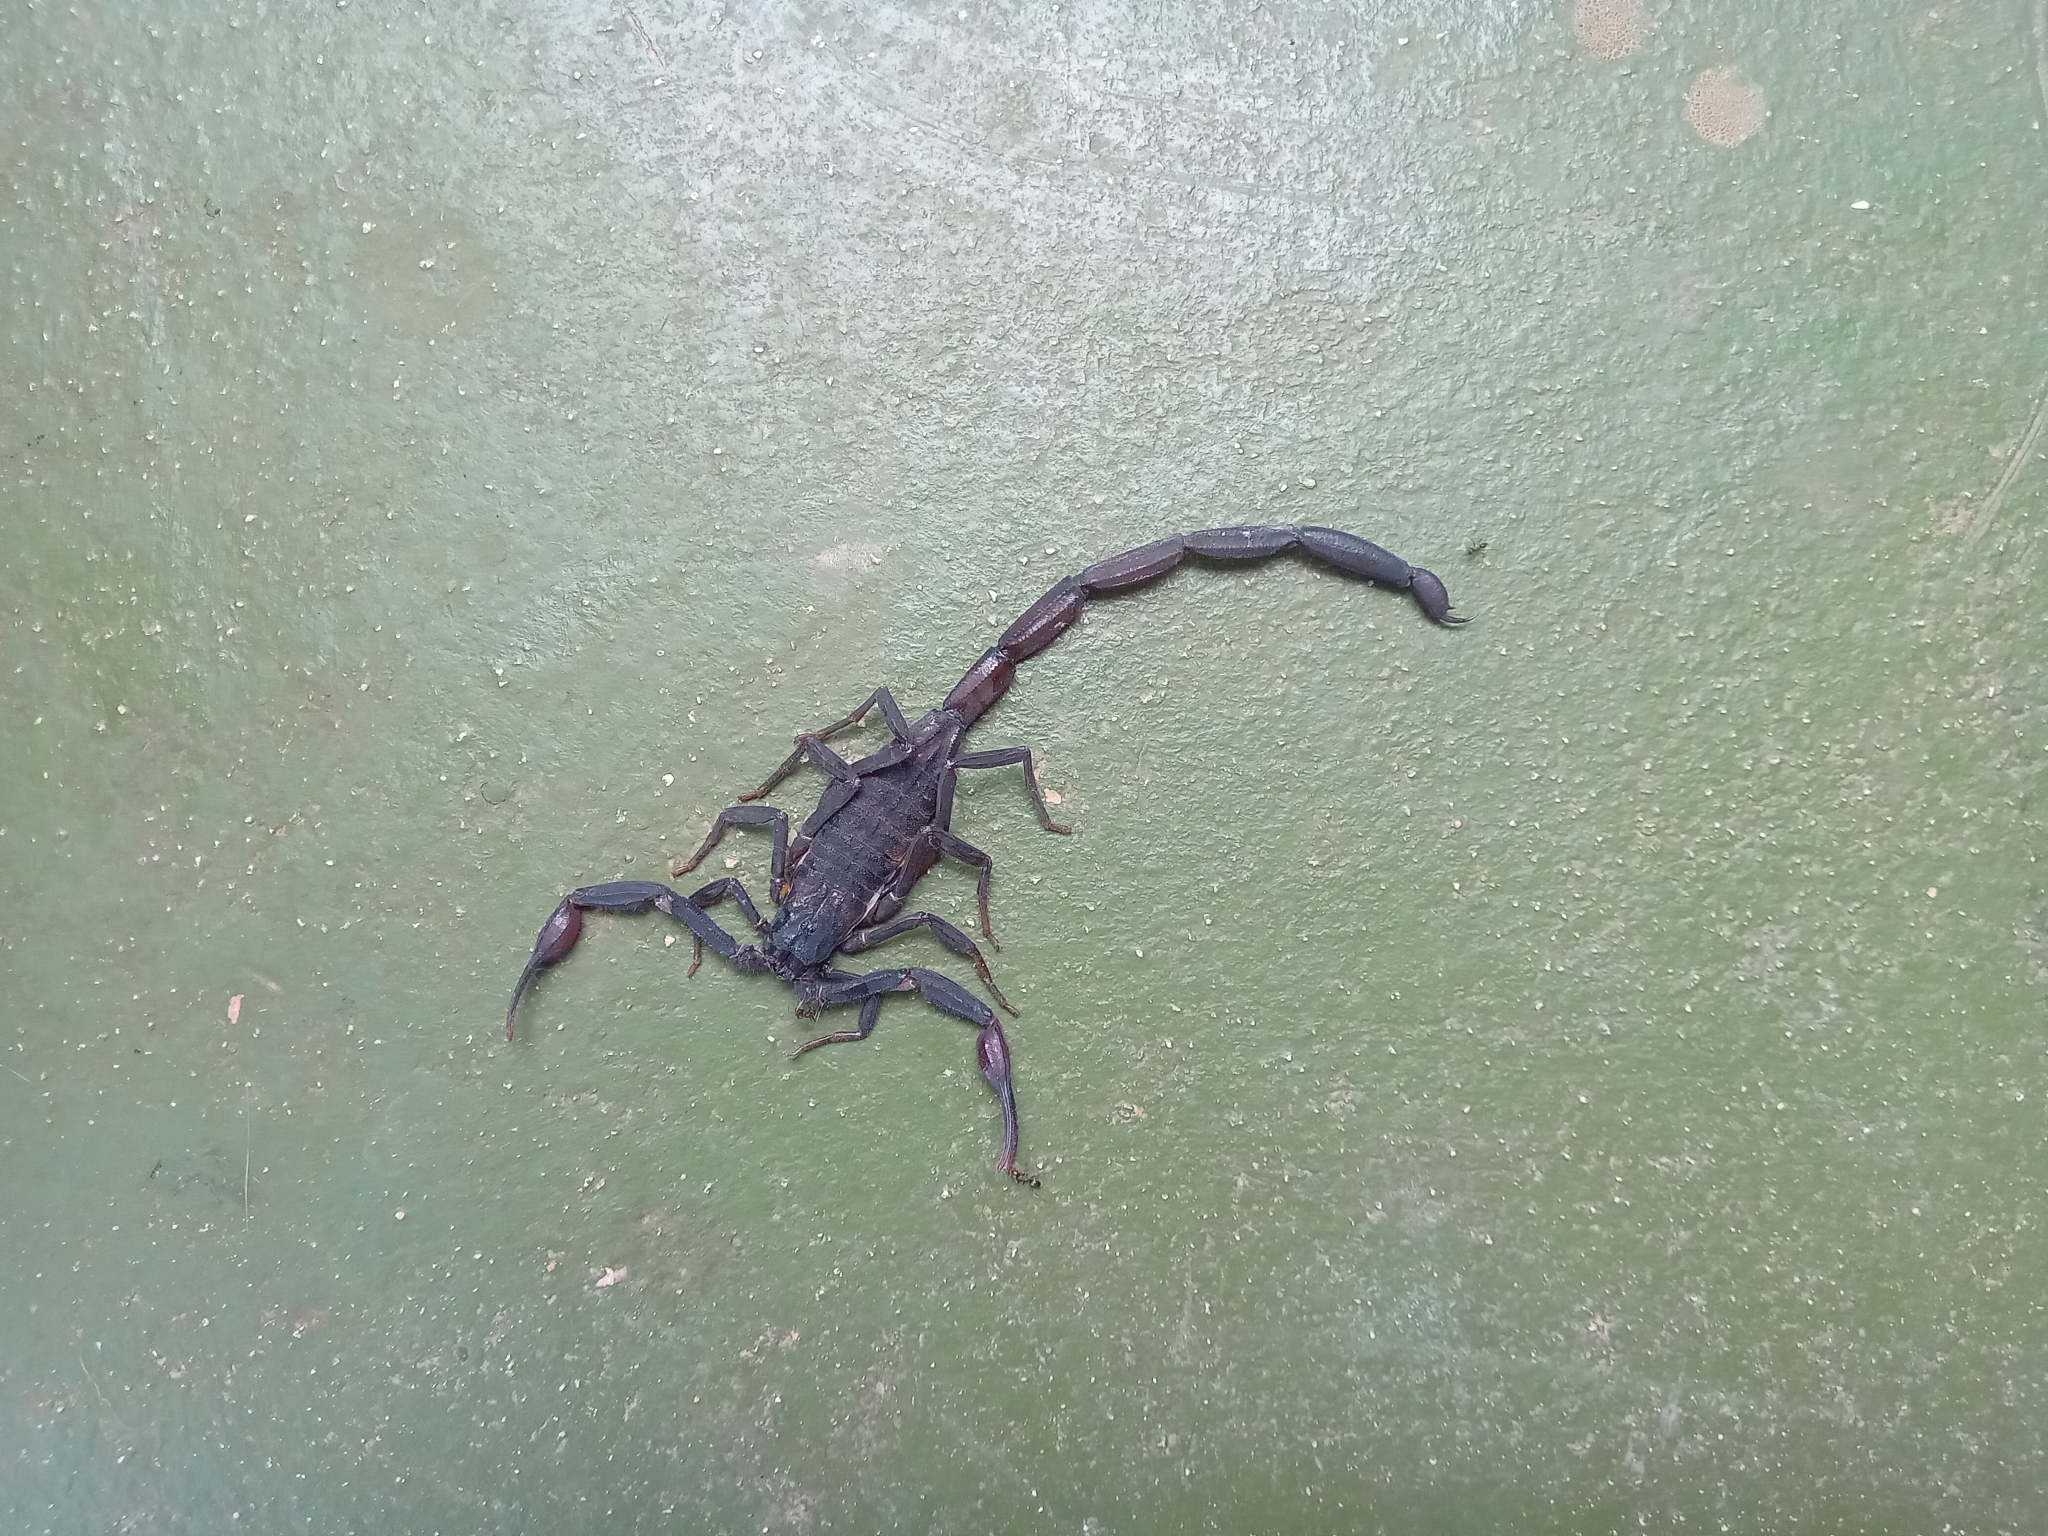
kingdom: Animalia
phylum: Arthropoda
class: Arachnida
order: Scorpiones
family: Buthidae
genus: Centruroides
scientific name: Centruroides gracilis
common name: Scorpions
